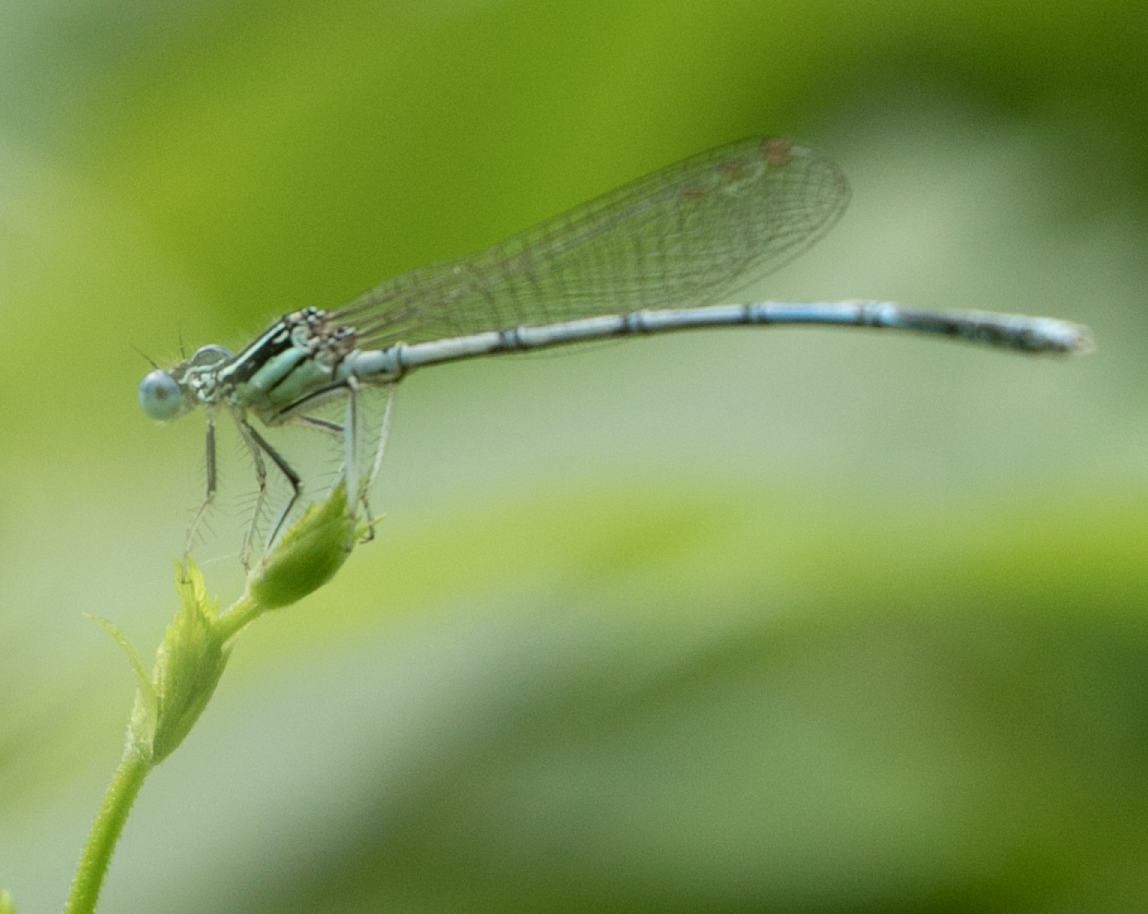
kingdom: Animalia
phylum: Arthropoda
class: Insecta
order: Odonata
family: Platycnemididae
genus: Platycnemis
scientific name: Platycnemis pennipes
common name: White-legged damselfly
